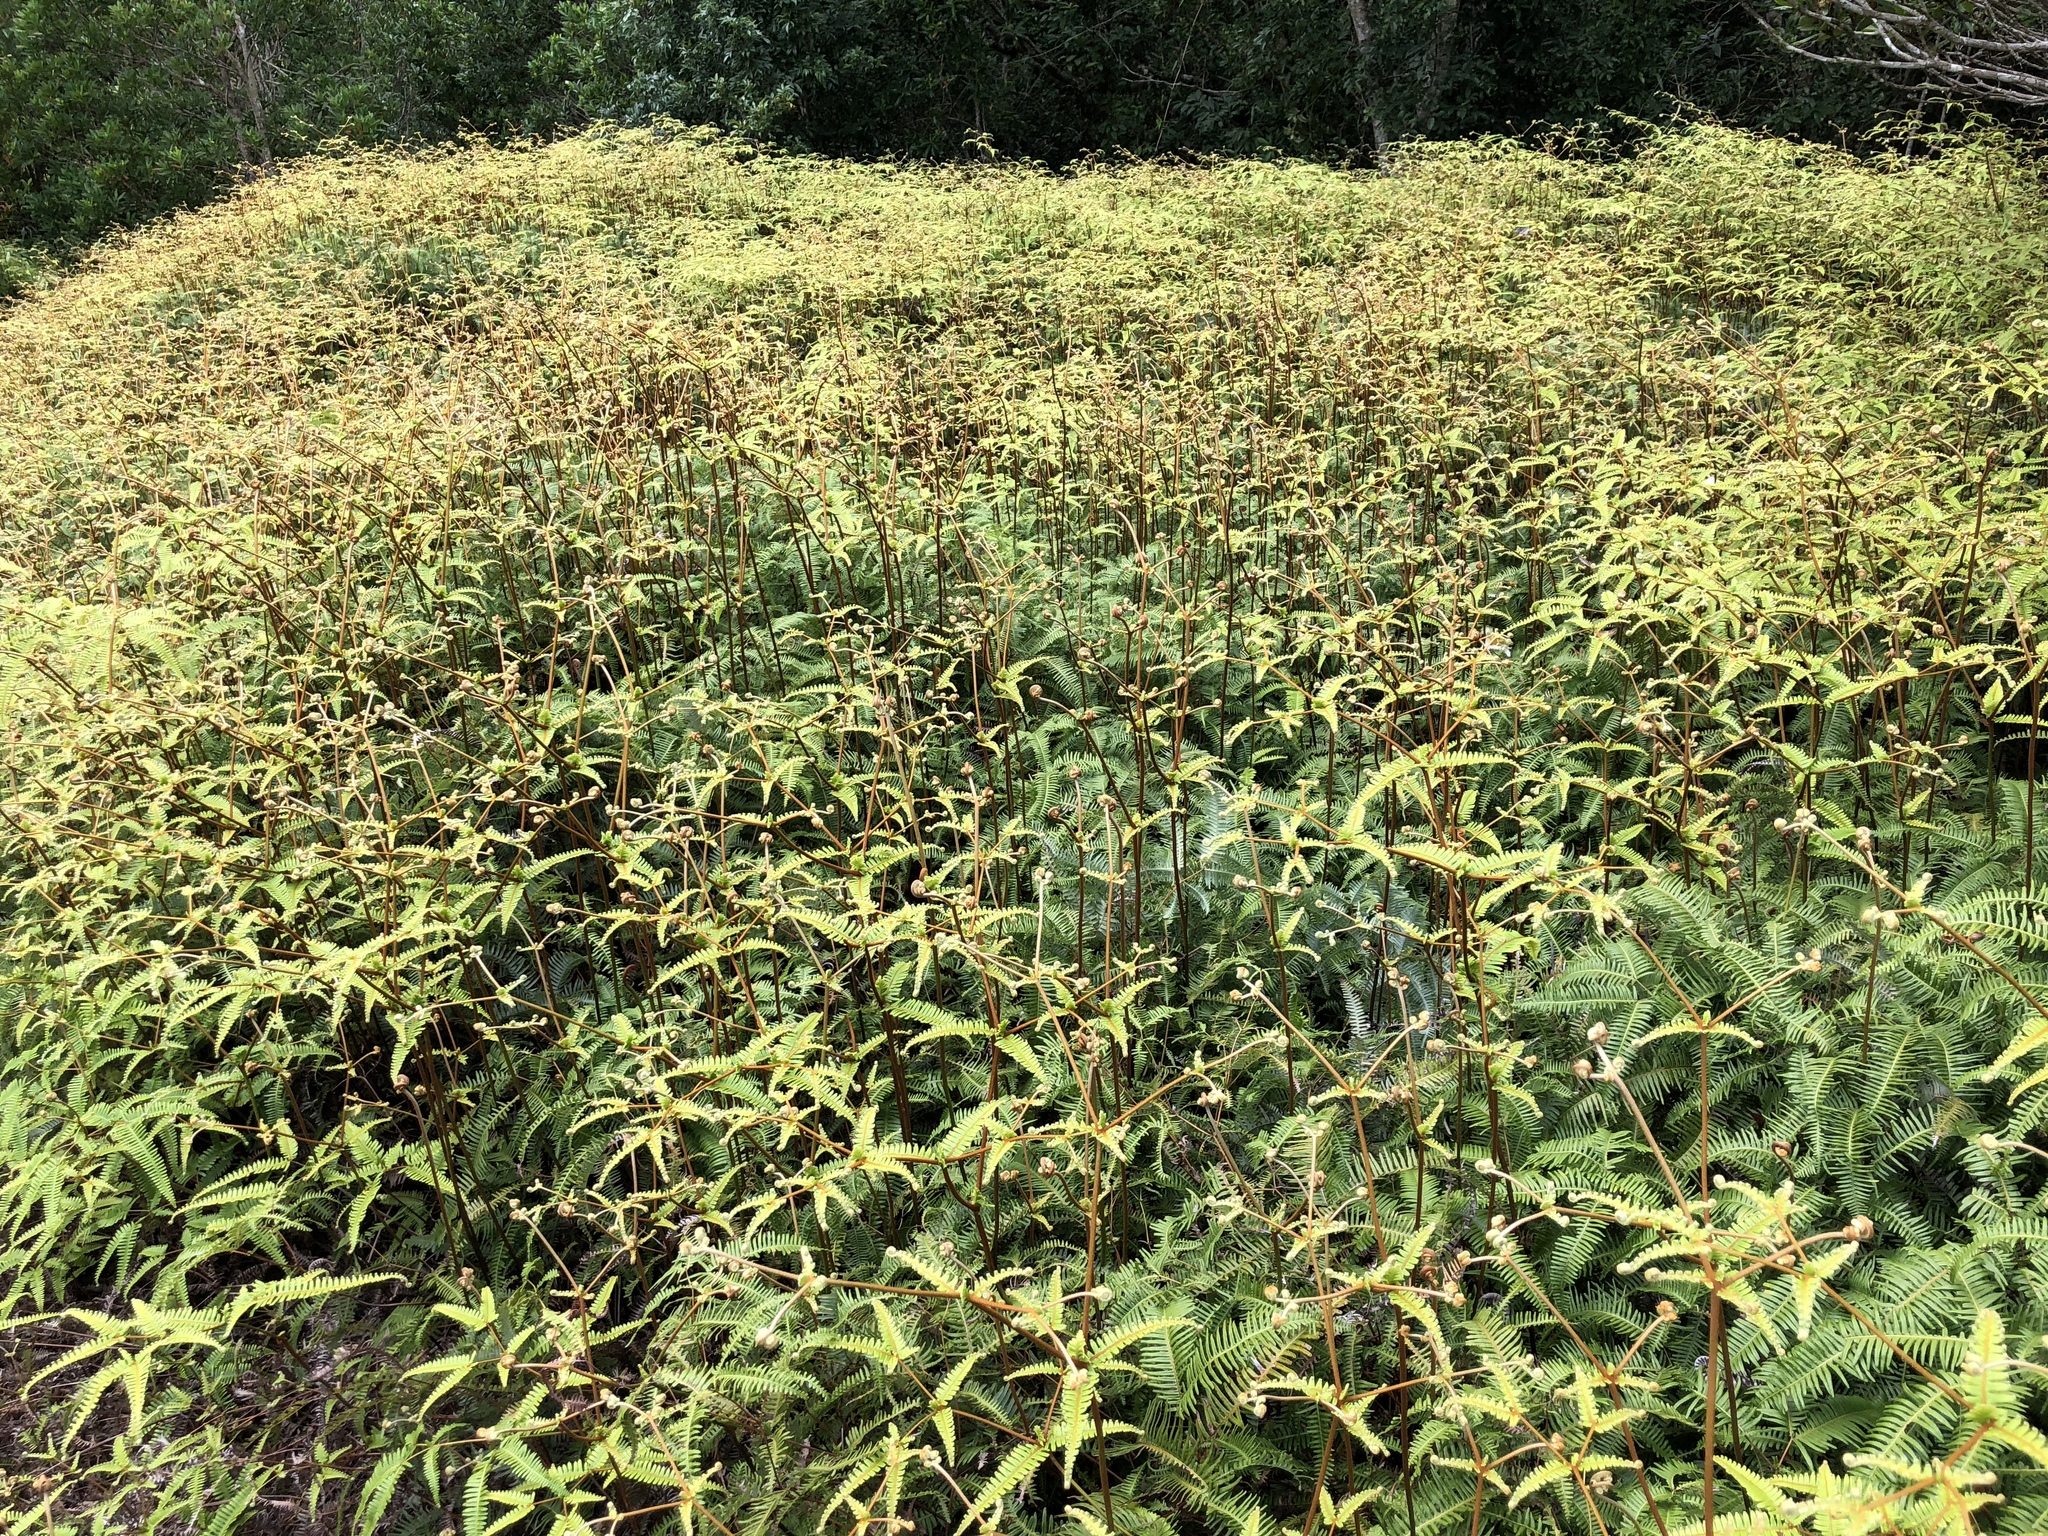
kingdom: Plantae
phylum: Tracheophyta
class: Polypodiopsida
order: Gleicheniales
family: Gleicheniaceae
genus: Dicranopteris
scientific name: Dicranopteris linearis
